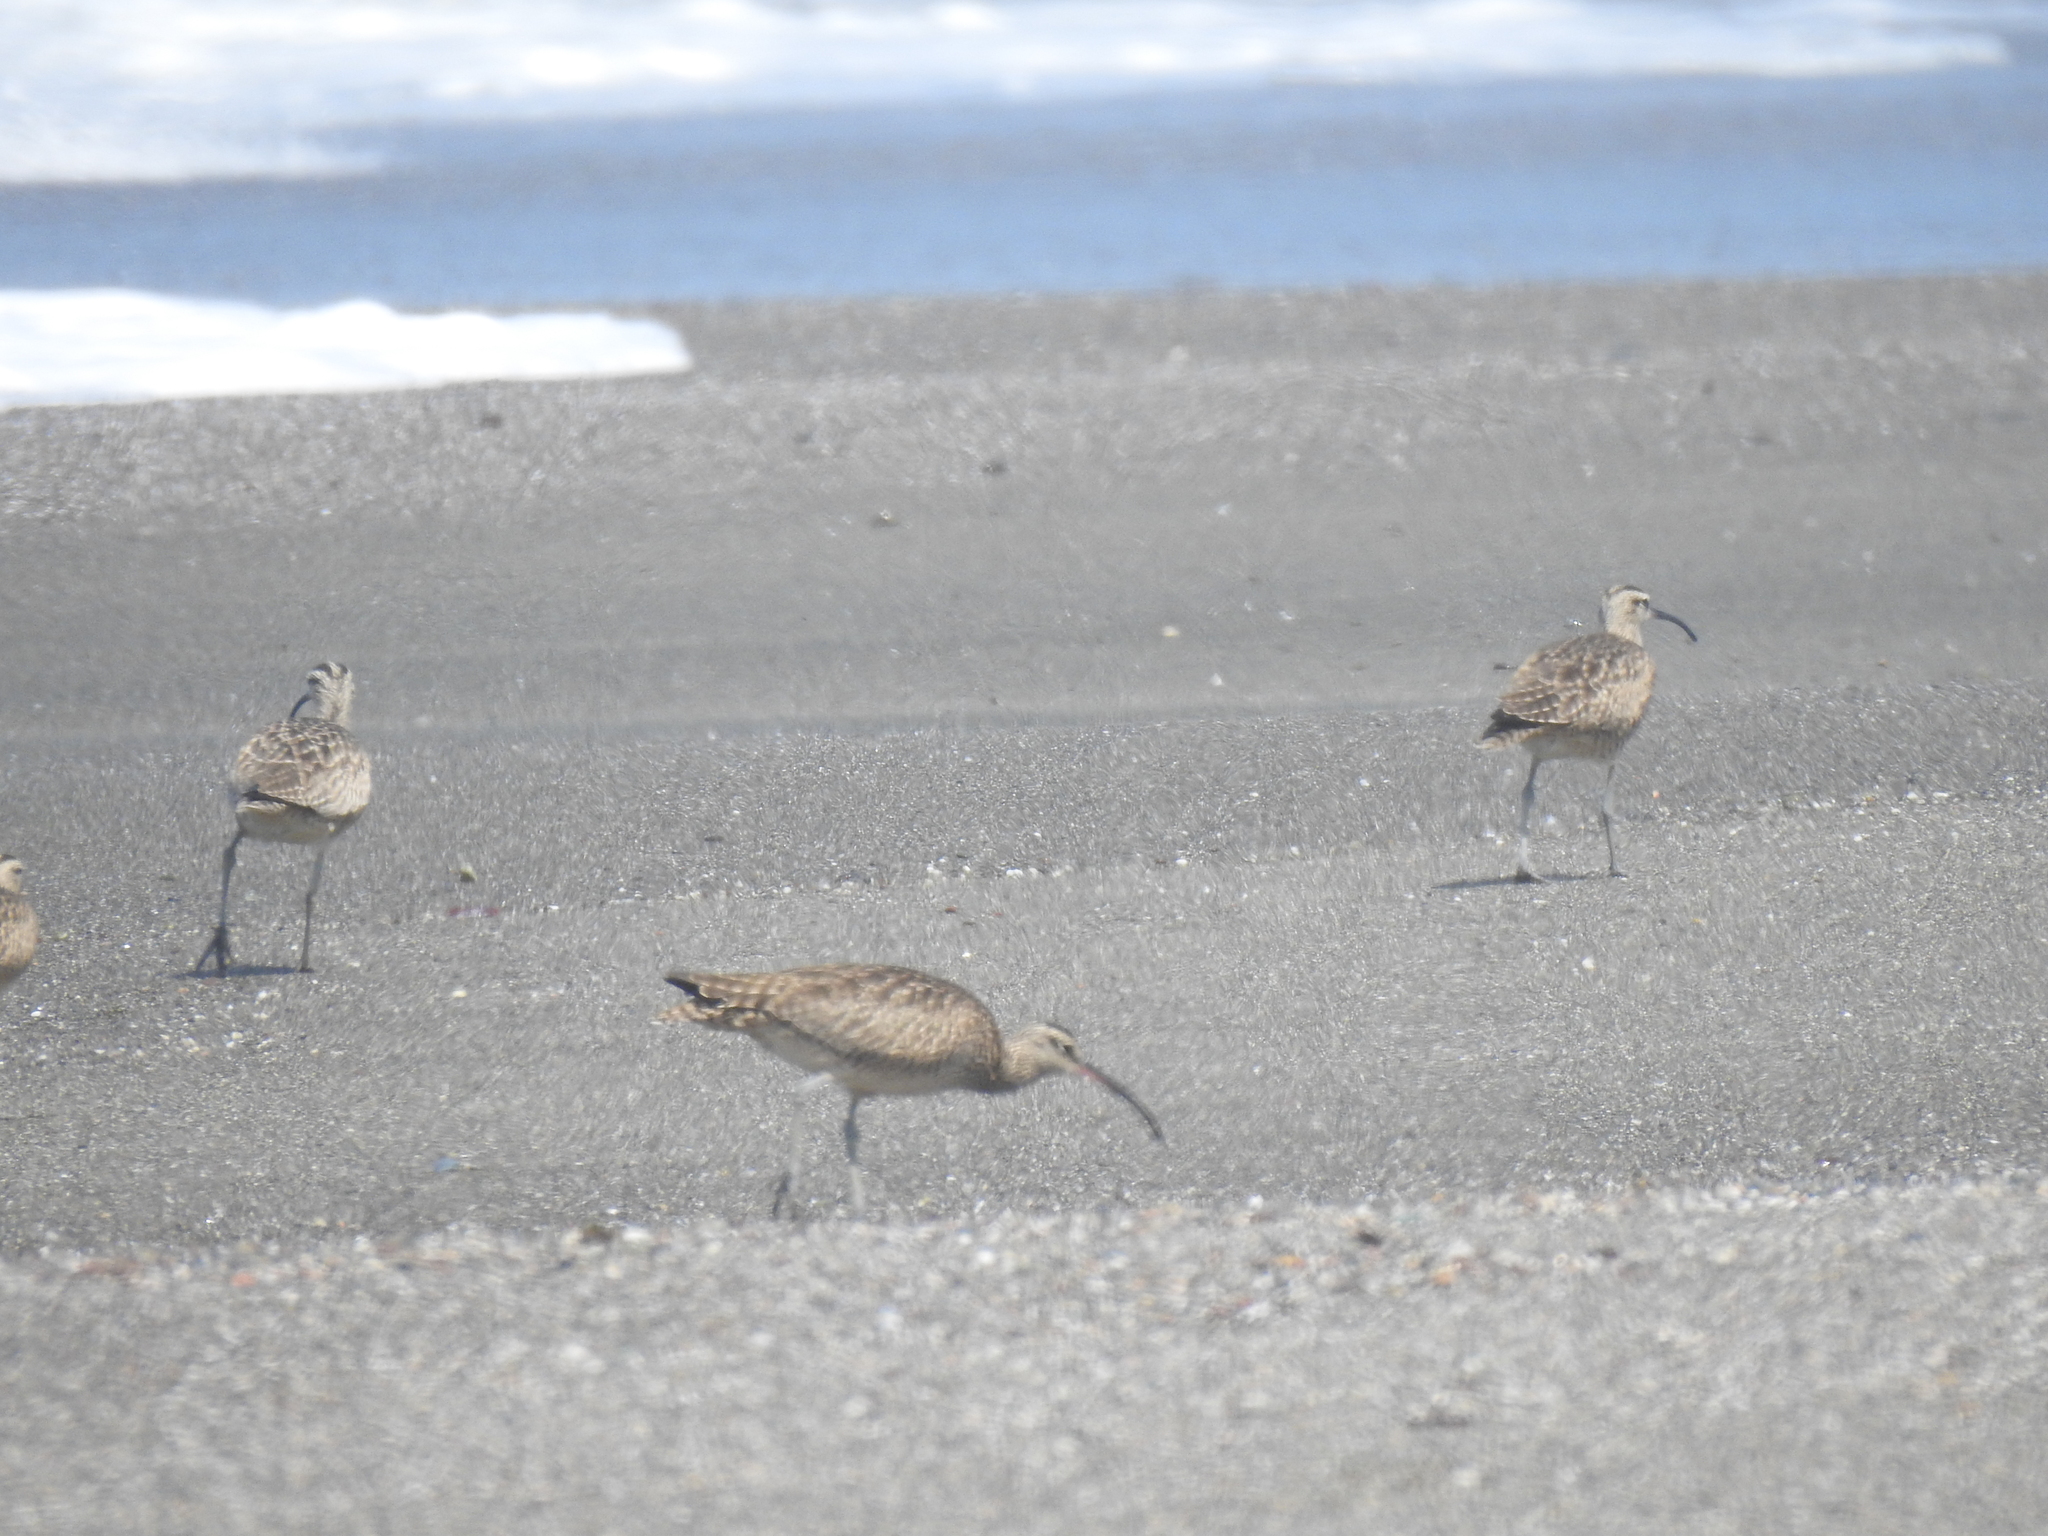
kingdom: Animalia
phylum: Chordata
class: Aves
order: Charadriiformes
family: Scolopacidae
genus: Numenius
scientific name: Numenius phaeopus
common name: Whimbrel
